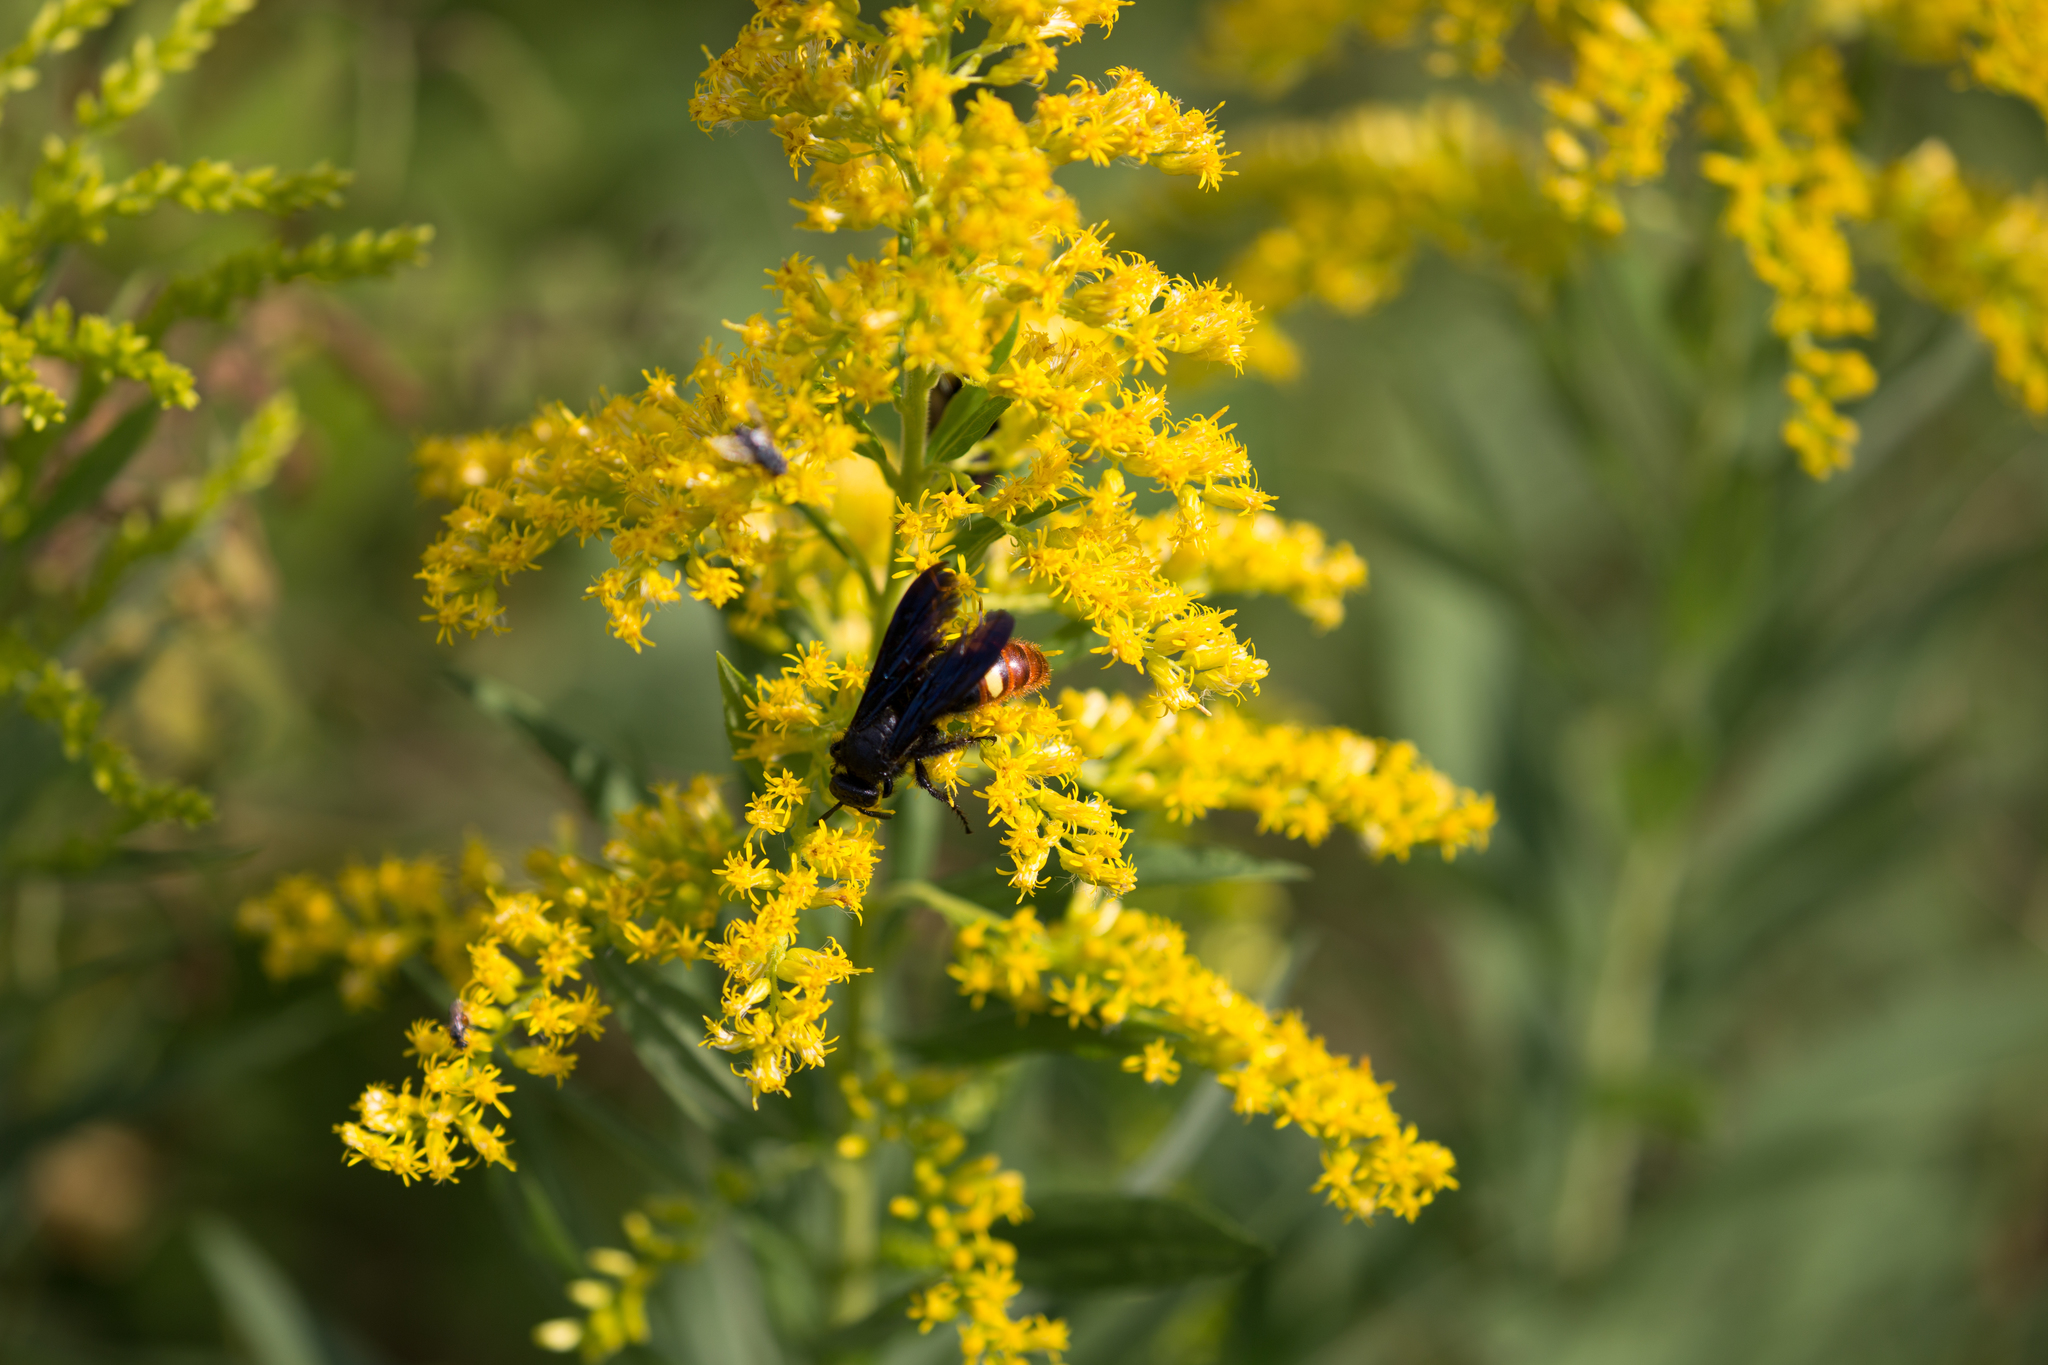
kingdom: Animalia
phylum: Arthropoda
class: Insecta
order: Hymenoptera
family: Scoliidae
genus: Scolia
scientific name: Scolia dubia
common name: Blue-winged scoliid wasp
